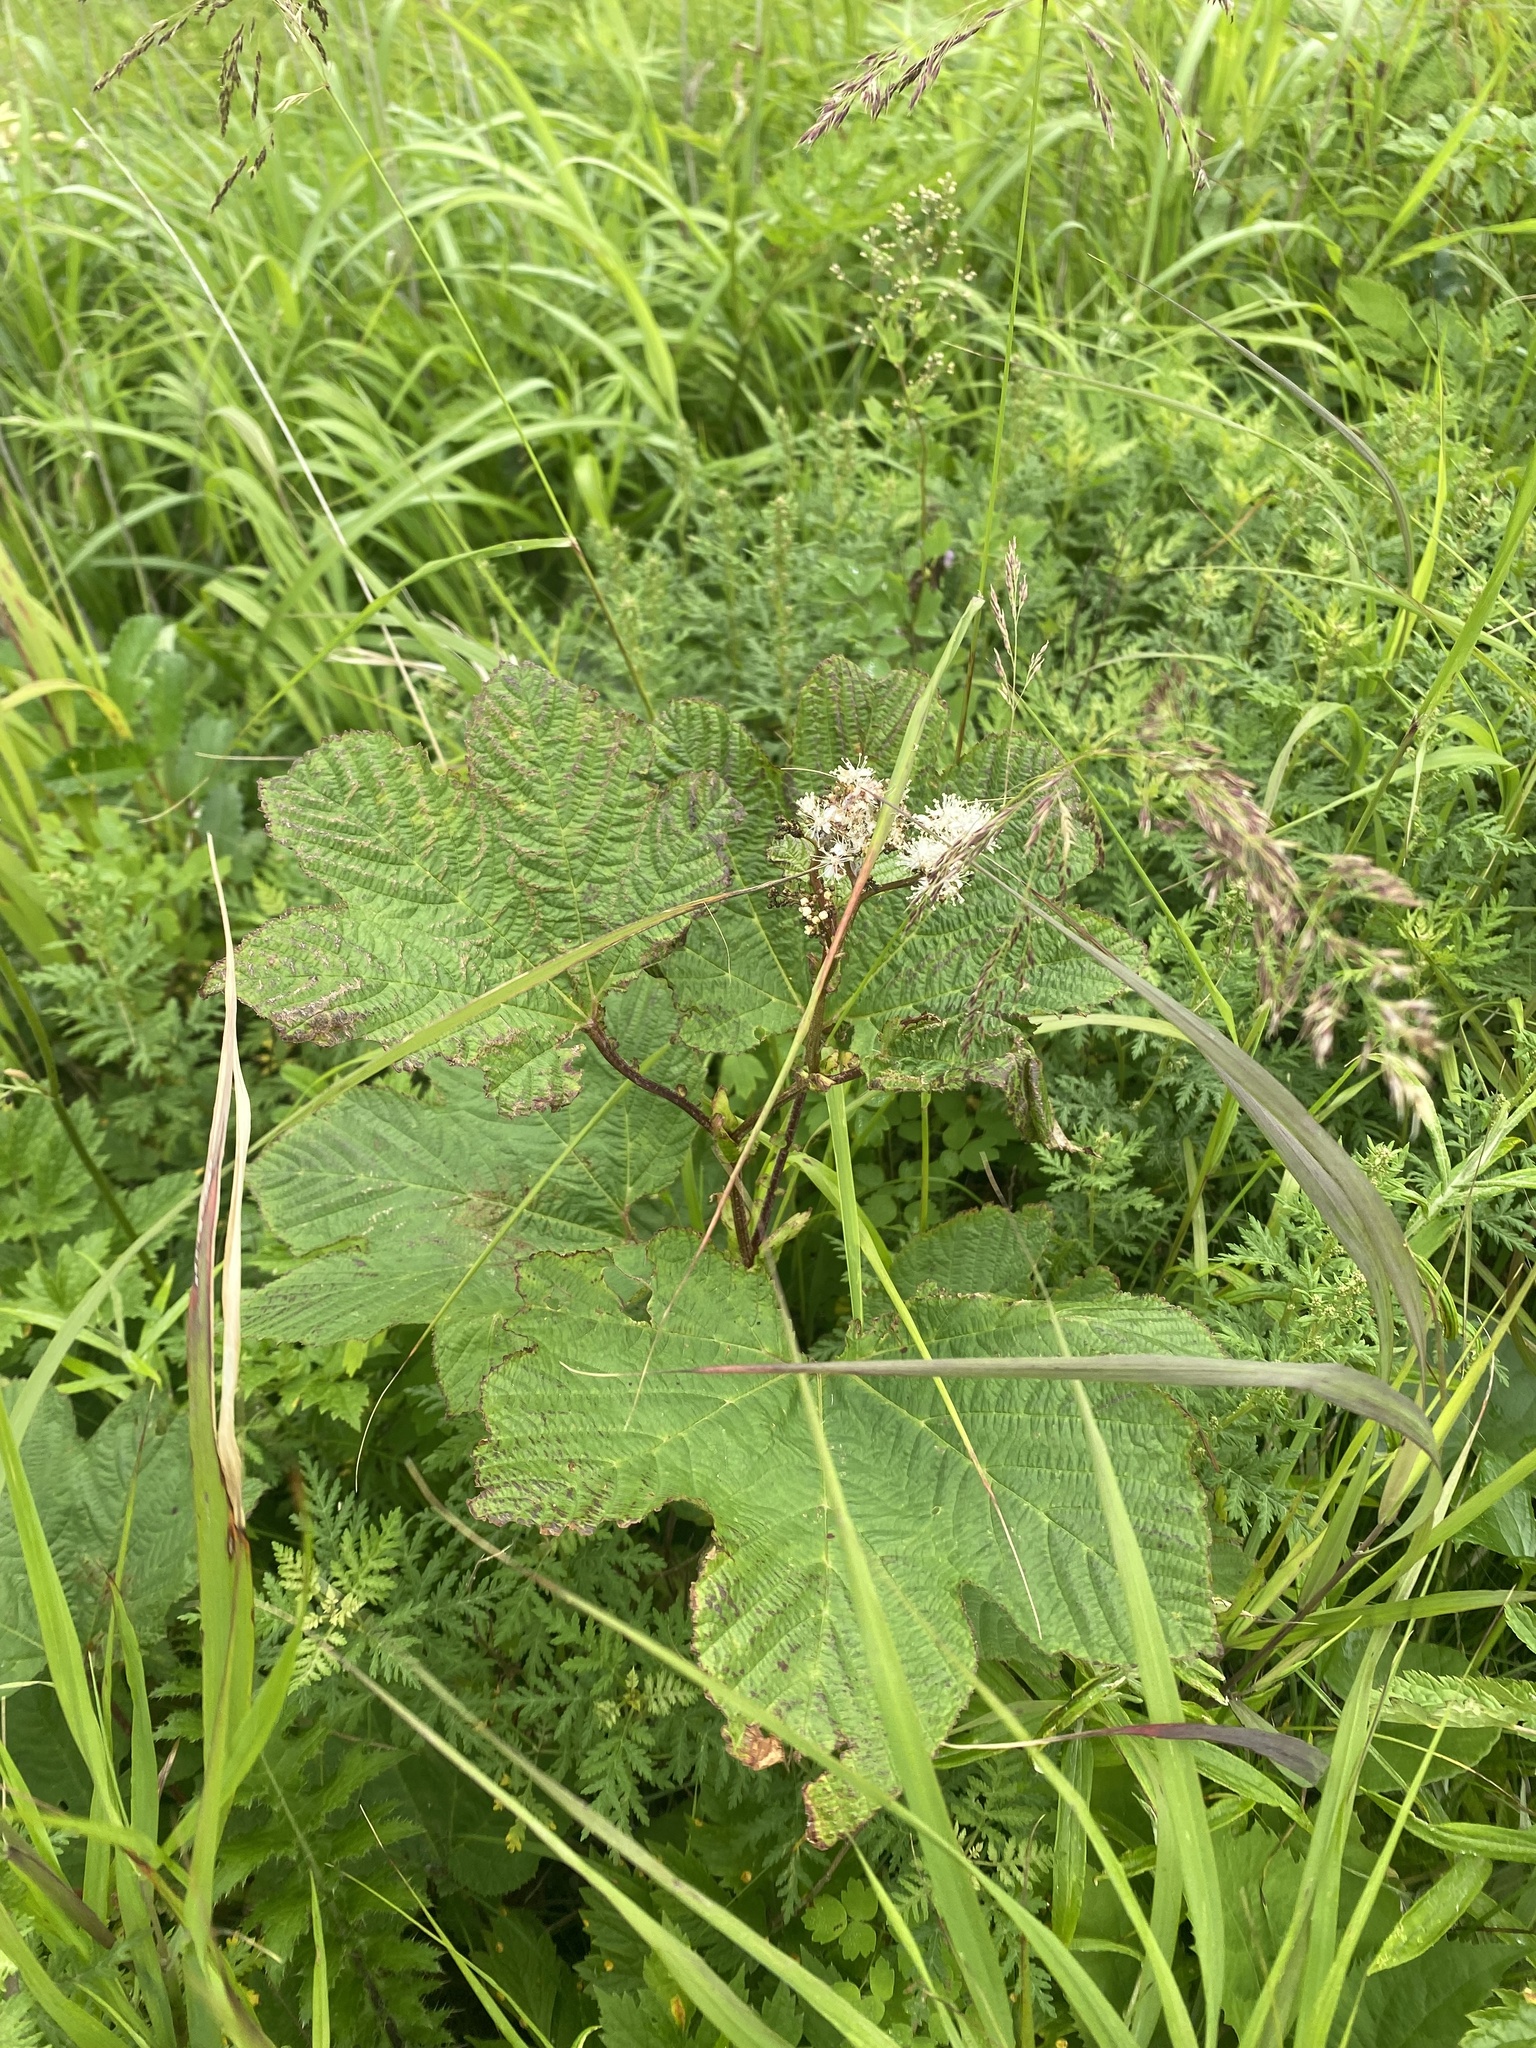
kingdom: Plantae
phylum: Tracheophyta
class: Magnoliopsida
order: Rosales
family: Rosaceae
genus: Filipendula
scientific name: Filipendula camtschatica
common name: Giant meadowsweet
